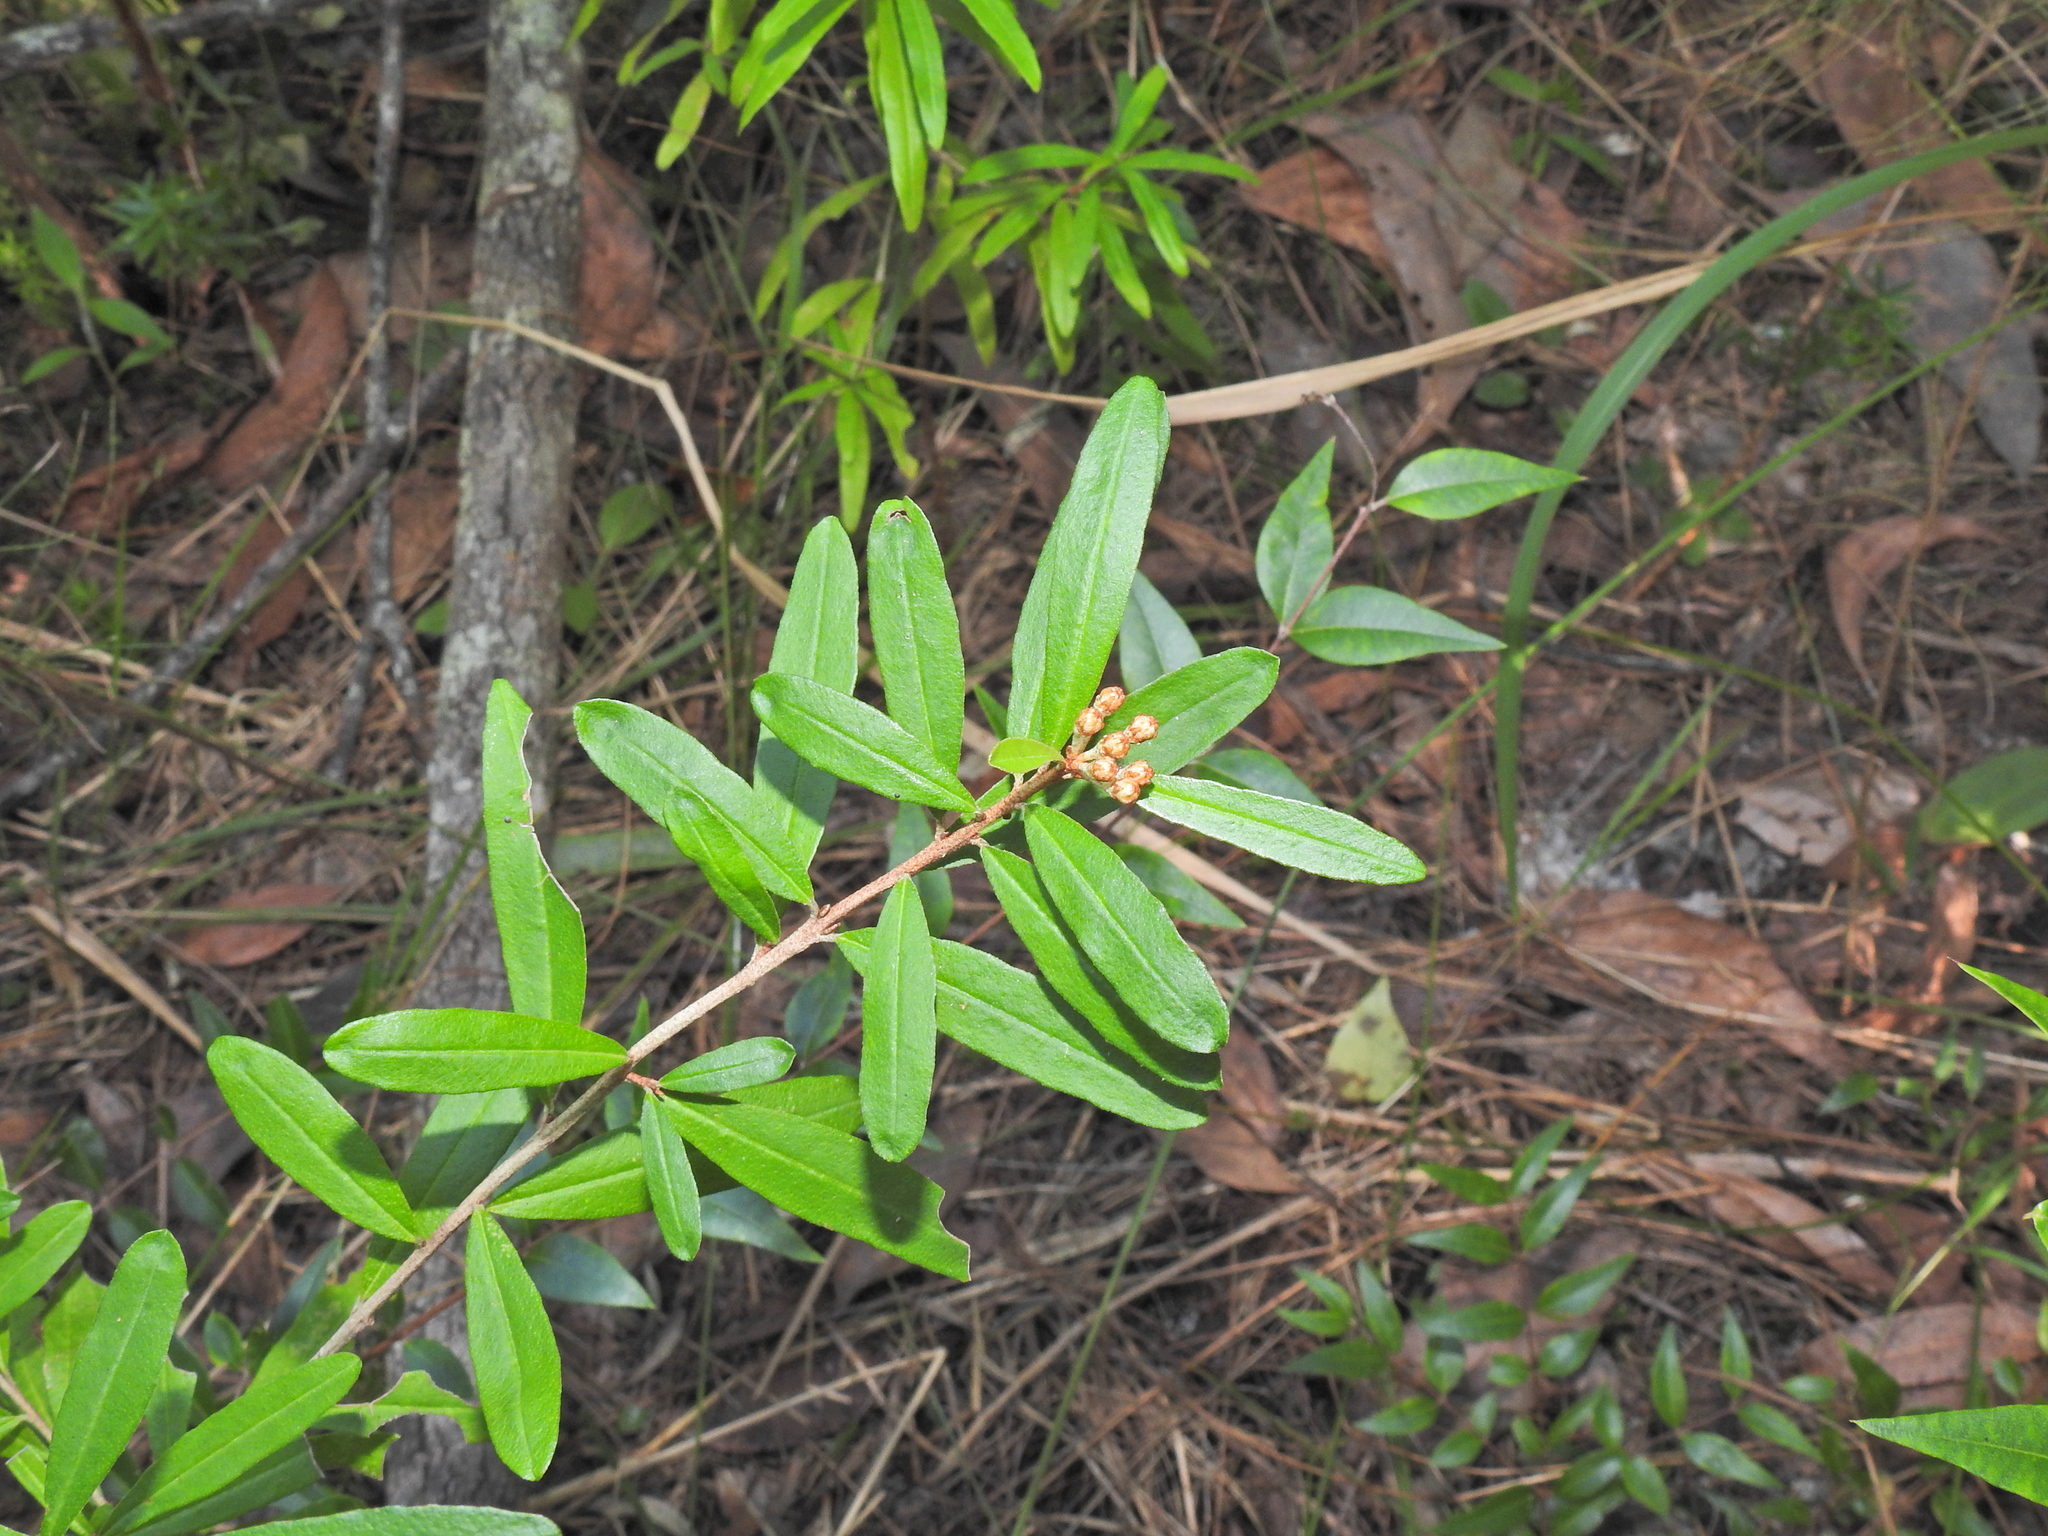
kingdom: Plantae
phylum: Tracheophyta
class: Magnoliopsida
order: Sapindales
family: Rutaceae
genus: Phebalium
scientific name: Phebalium woombye
